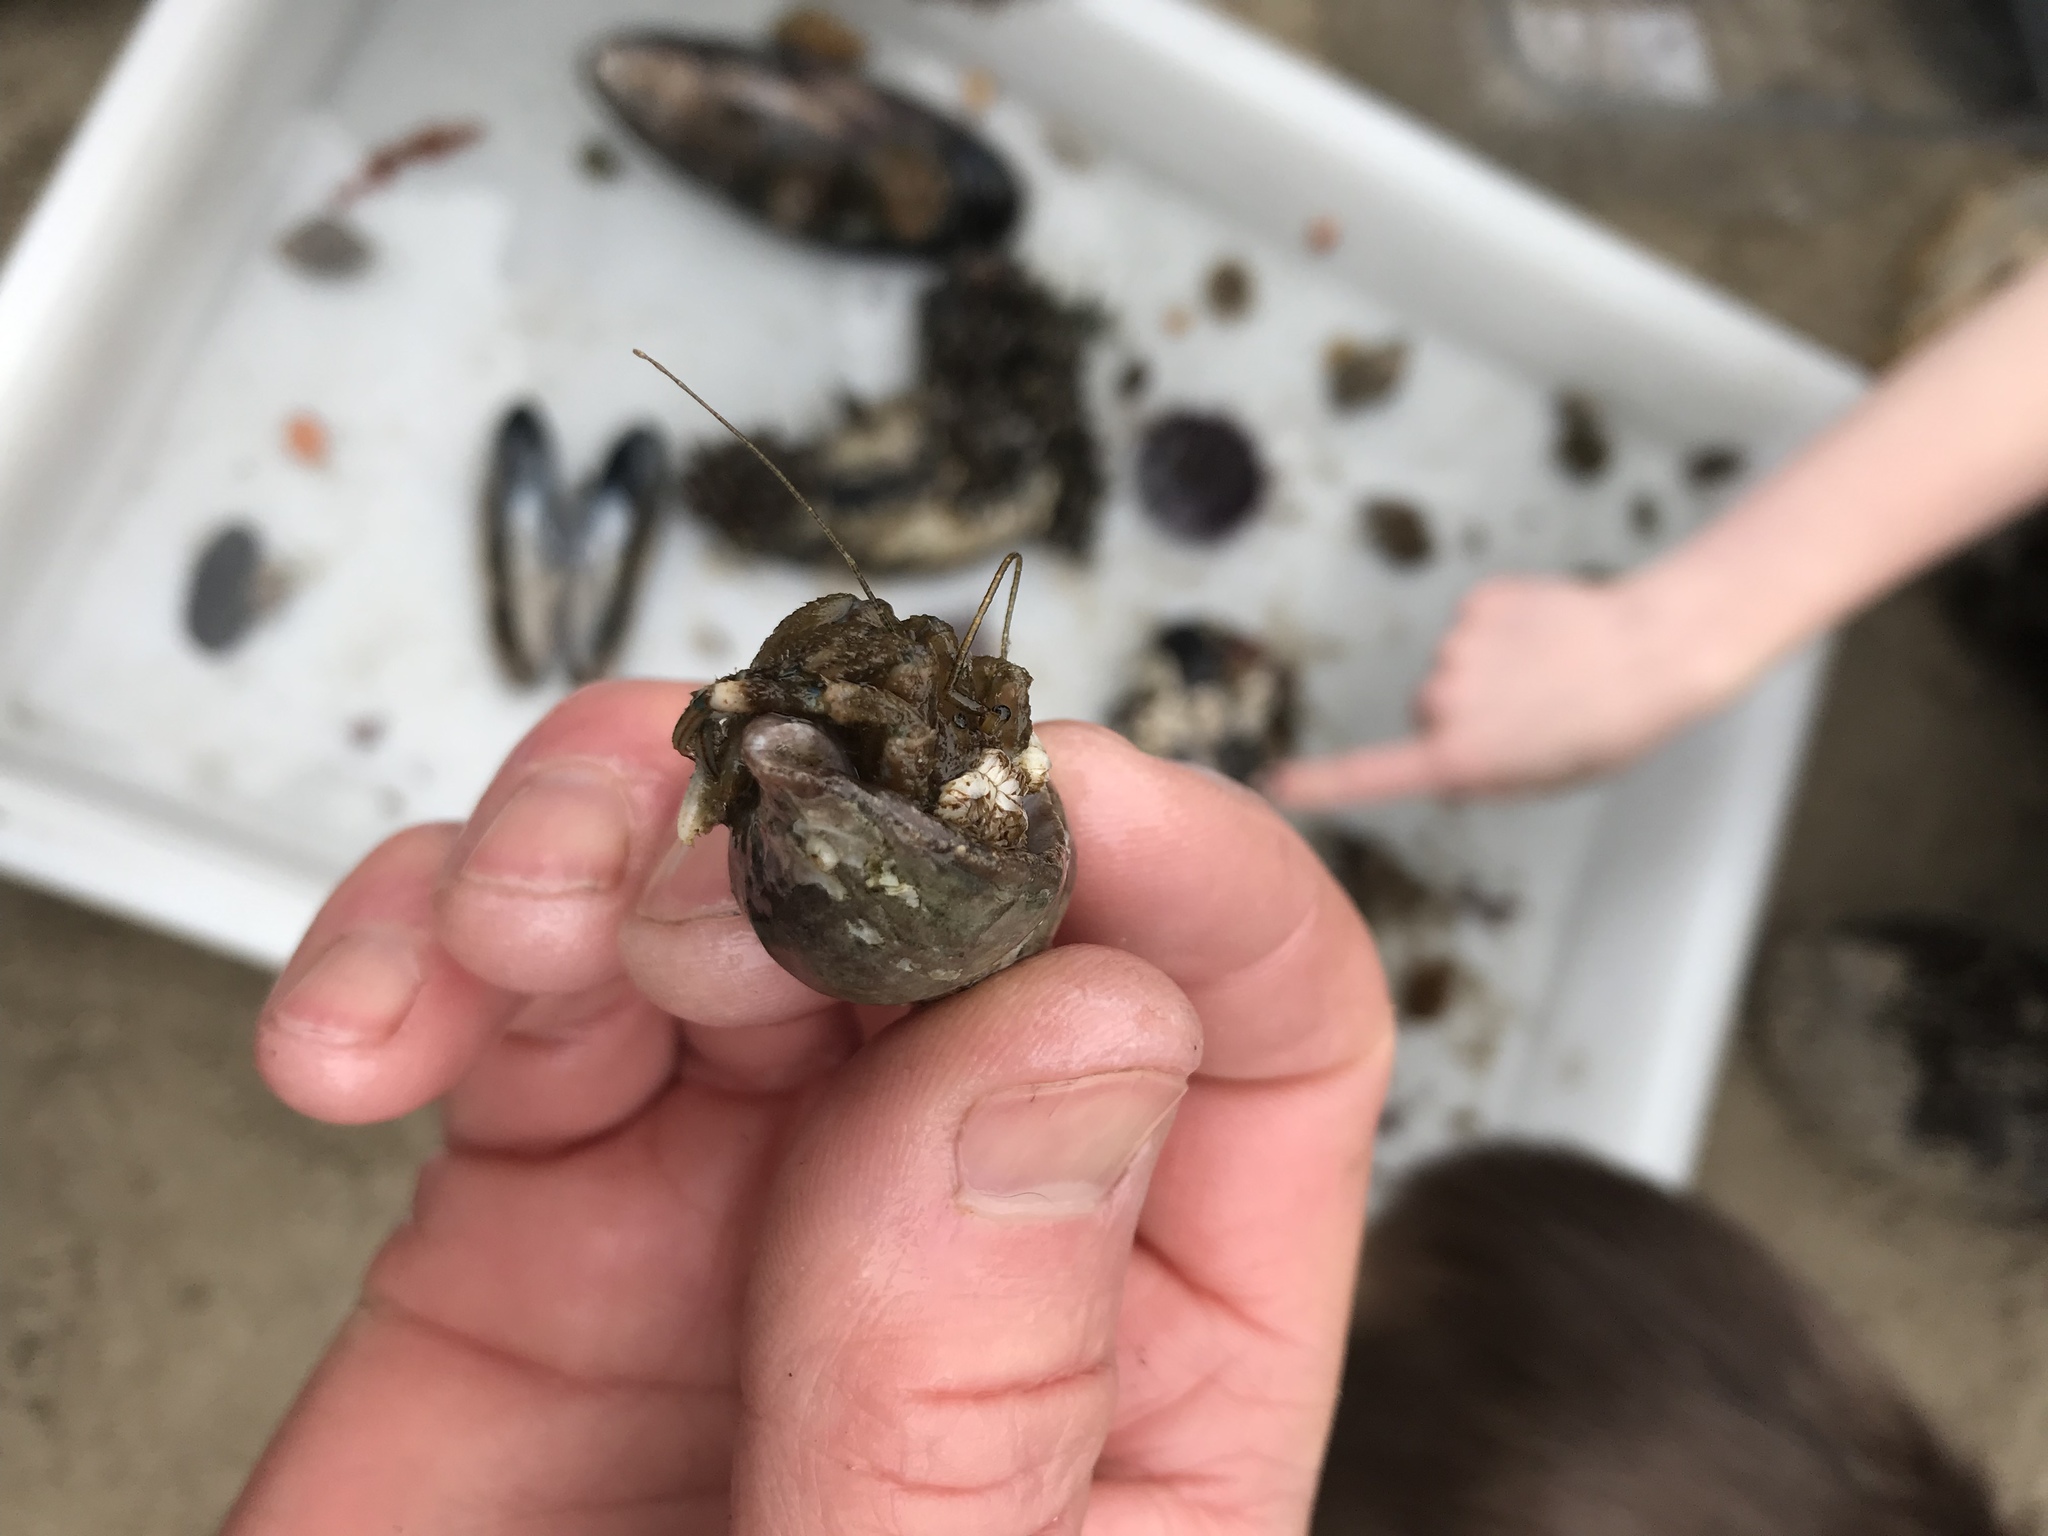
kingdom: Animalia
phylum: Arthropoda
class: Malacostraca
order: Decapoda
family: Paguridae
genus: Pagurus
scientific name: Pagurus hirsutiusculus
